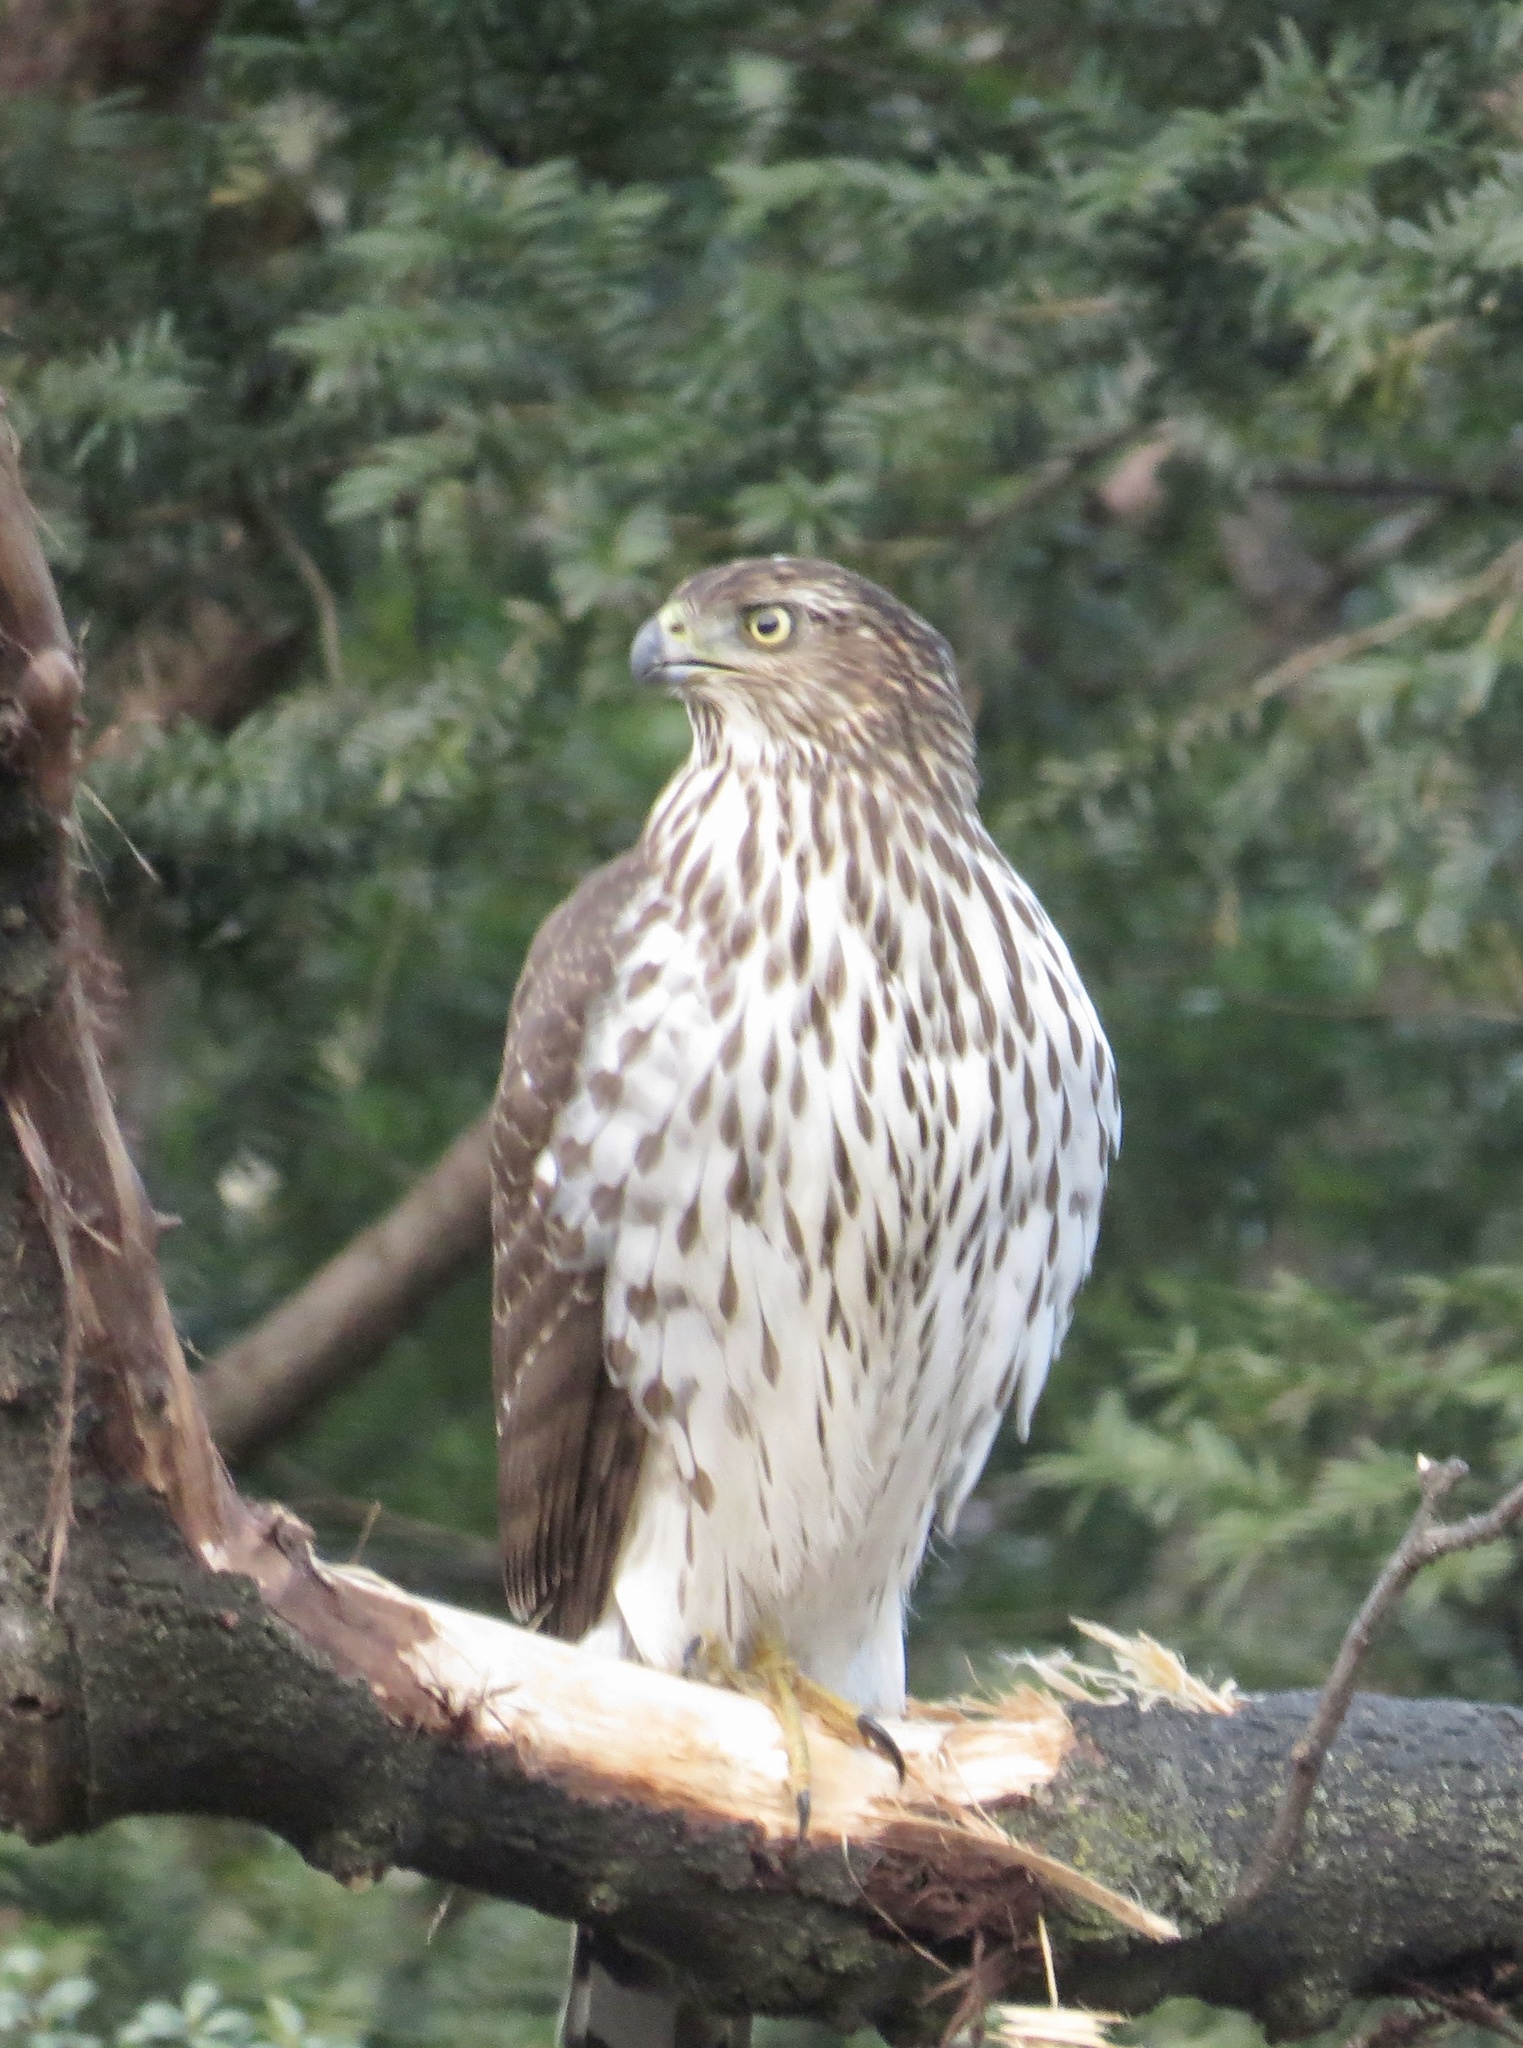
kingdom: Animalia
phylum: Chordata
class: Aves
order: Accipitriformes
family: Accipitridae
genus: Accipiter
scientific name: Accipiter cooperii
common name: Cooper's hawk
